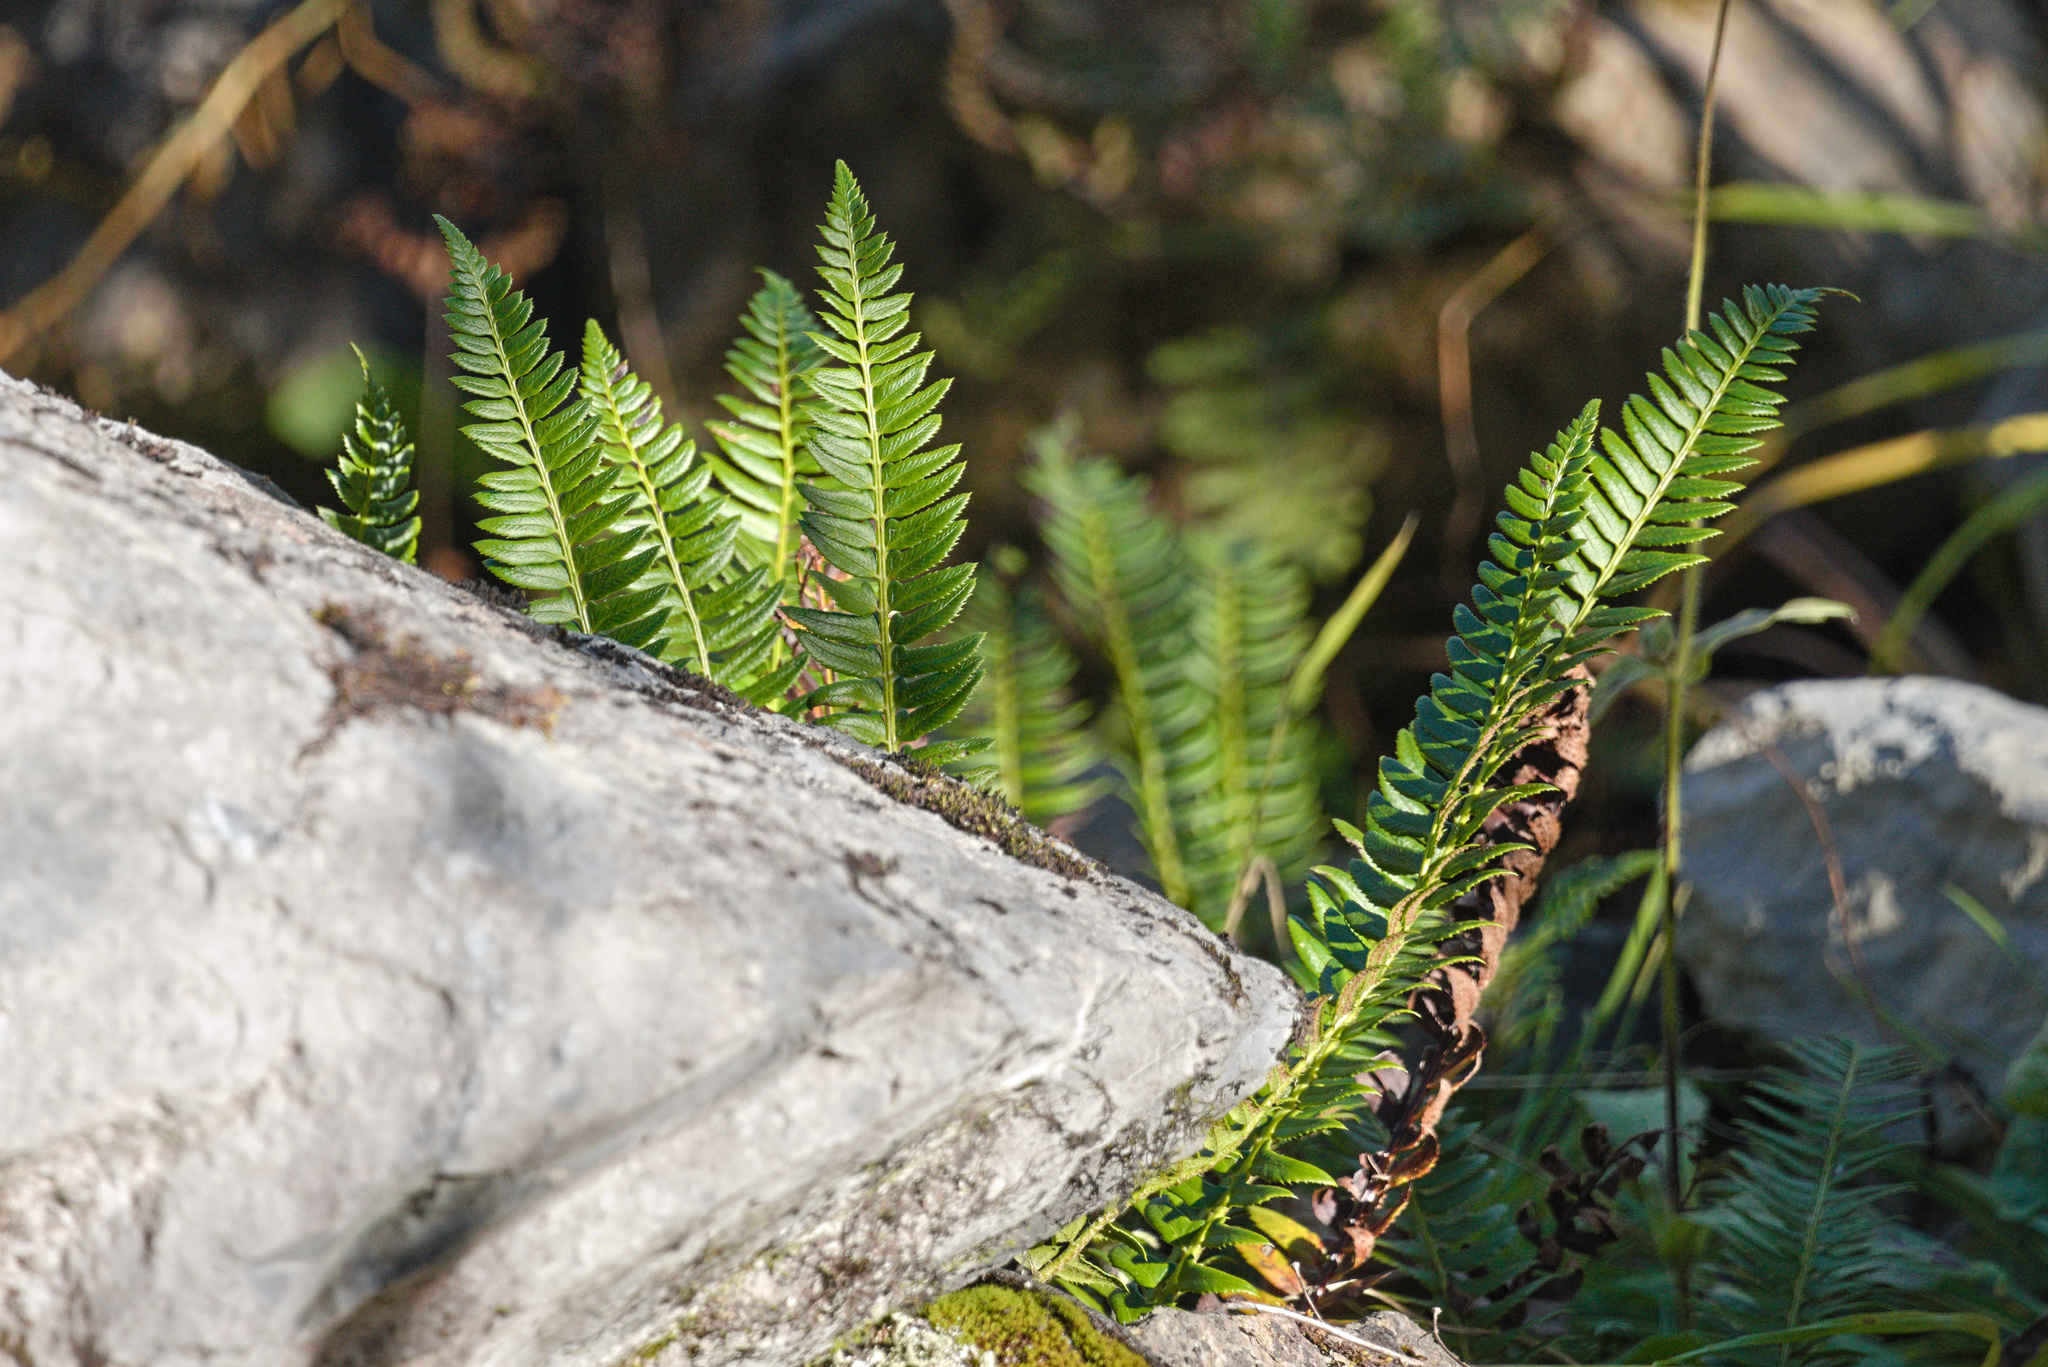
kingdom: Plantae
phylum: Tracheophyta
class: Polypodiopsida
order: Polypodiales
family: Dryopteridaceae
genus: Polystichum
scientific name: Polystichum lonchitis
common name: Holly fern
